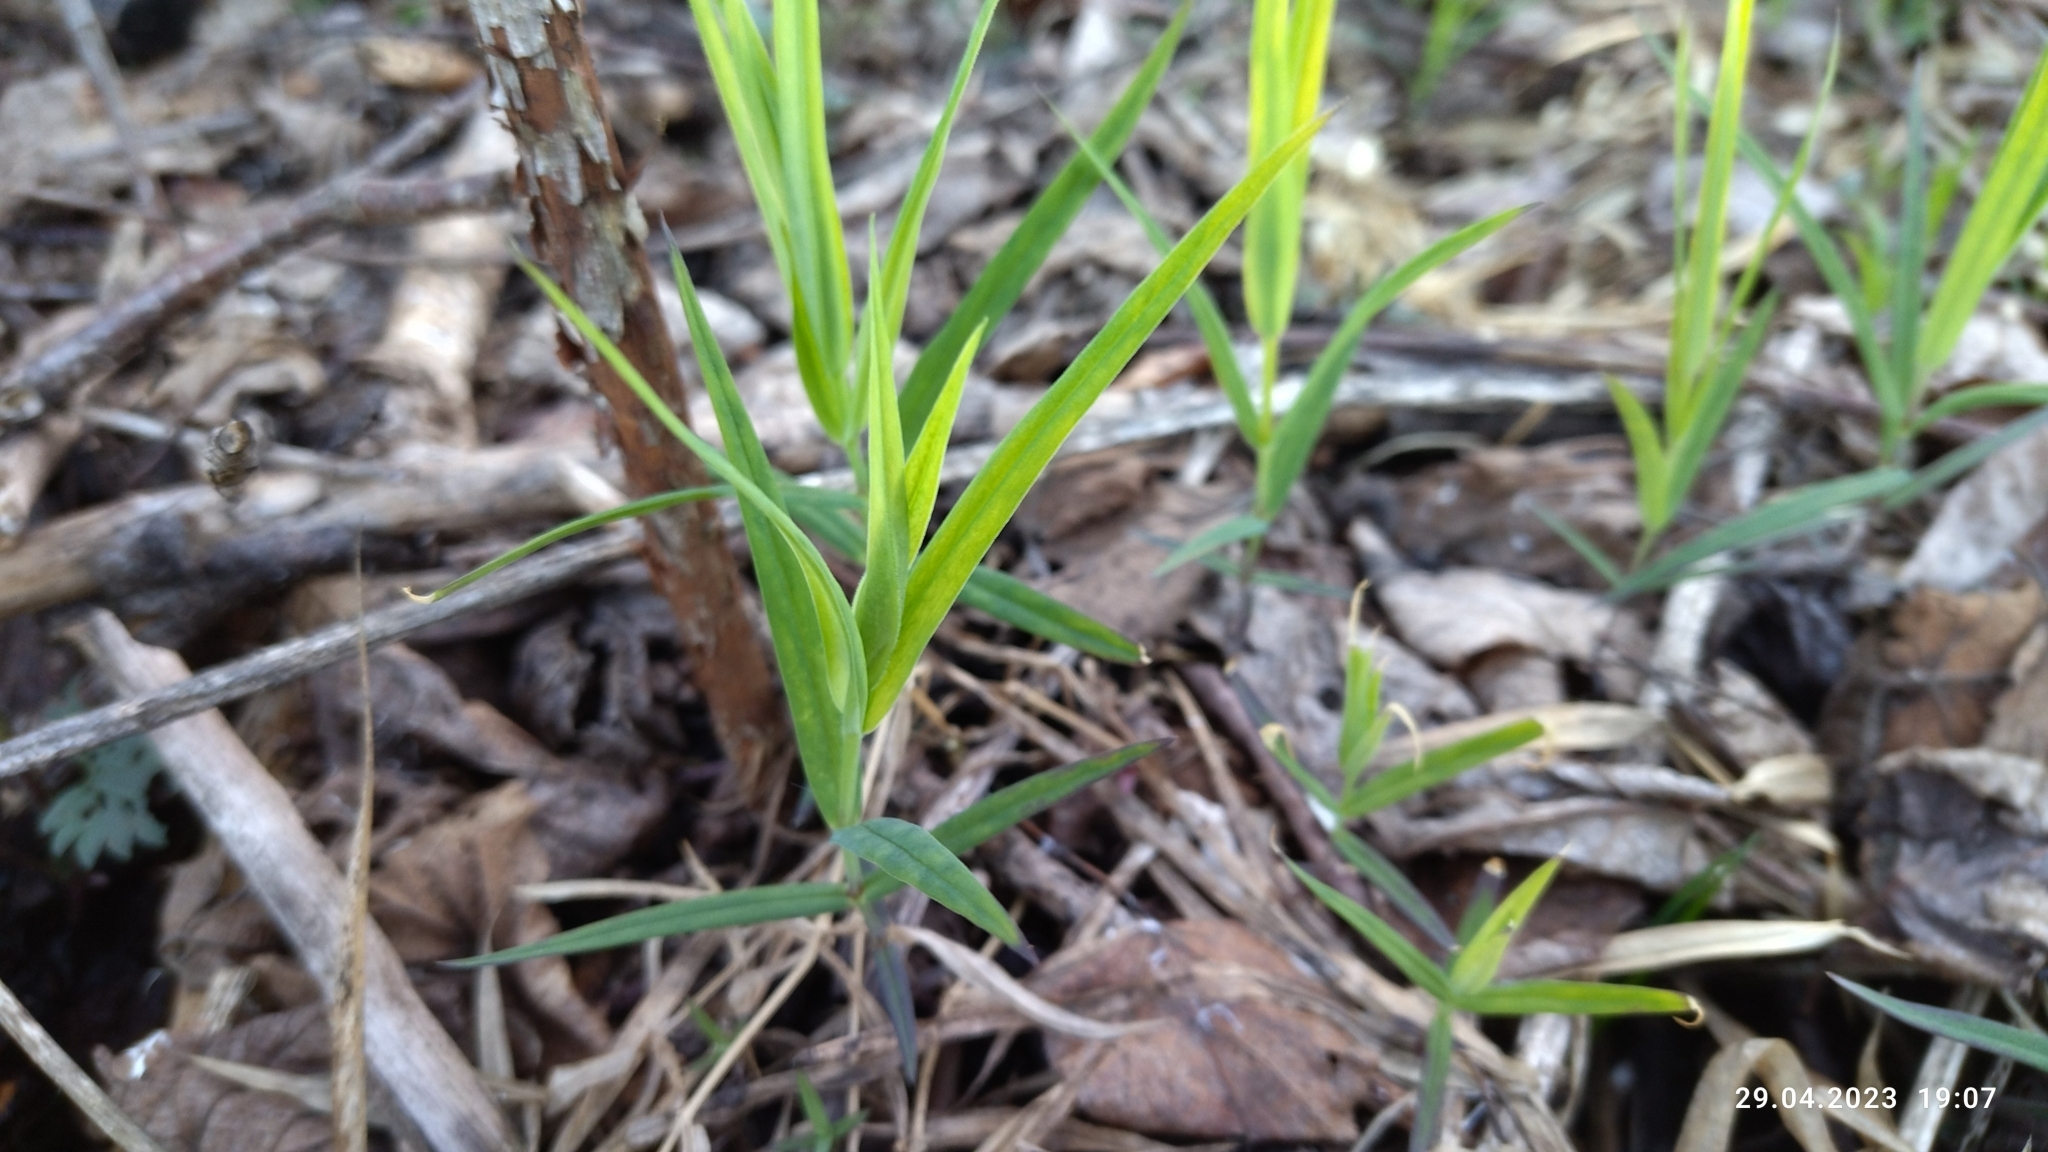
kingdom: Plantae
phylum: Tracheophyta
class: Magnoliopsida
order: Caryophyllales
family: Caryophyllaceae
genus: Rabelera
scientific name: Rabelera holostea
